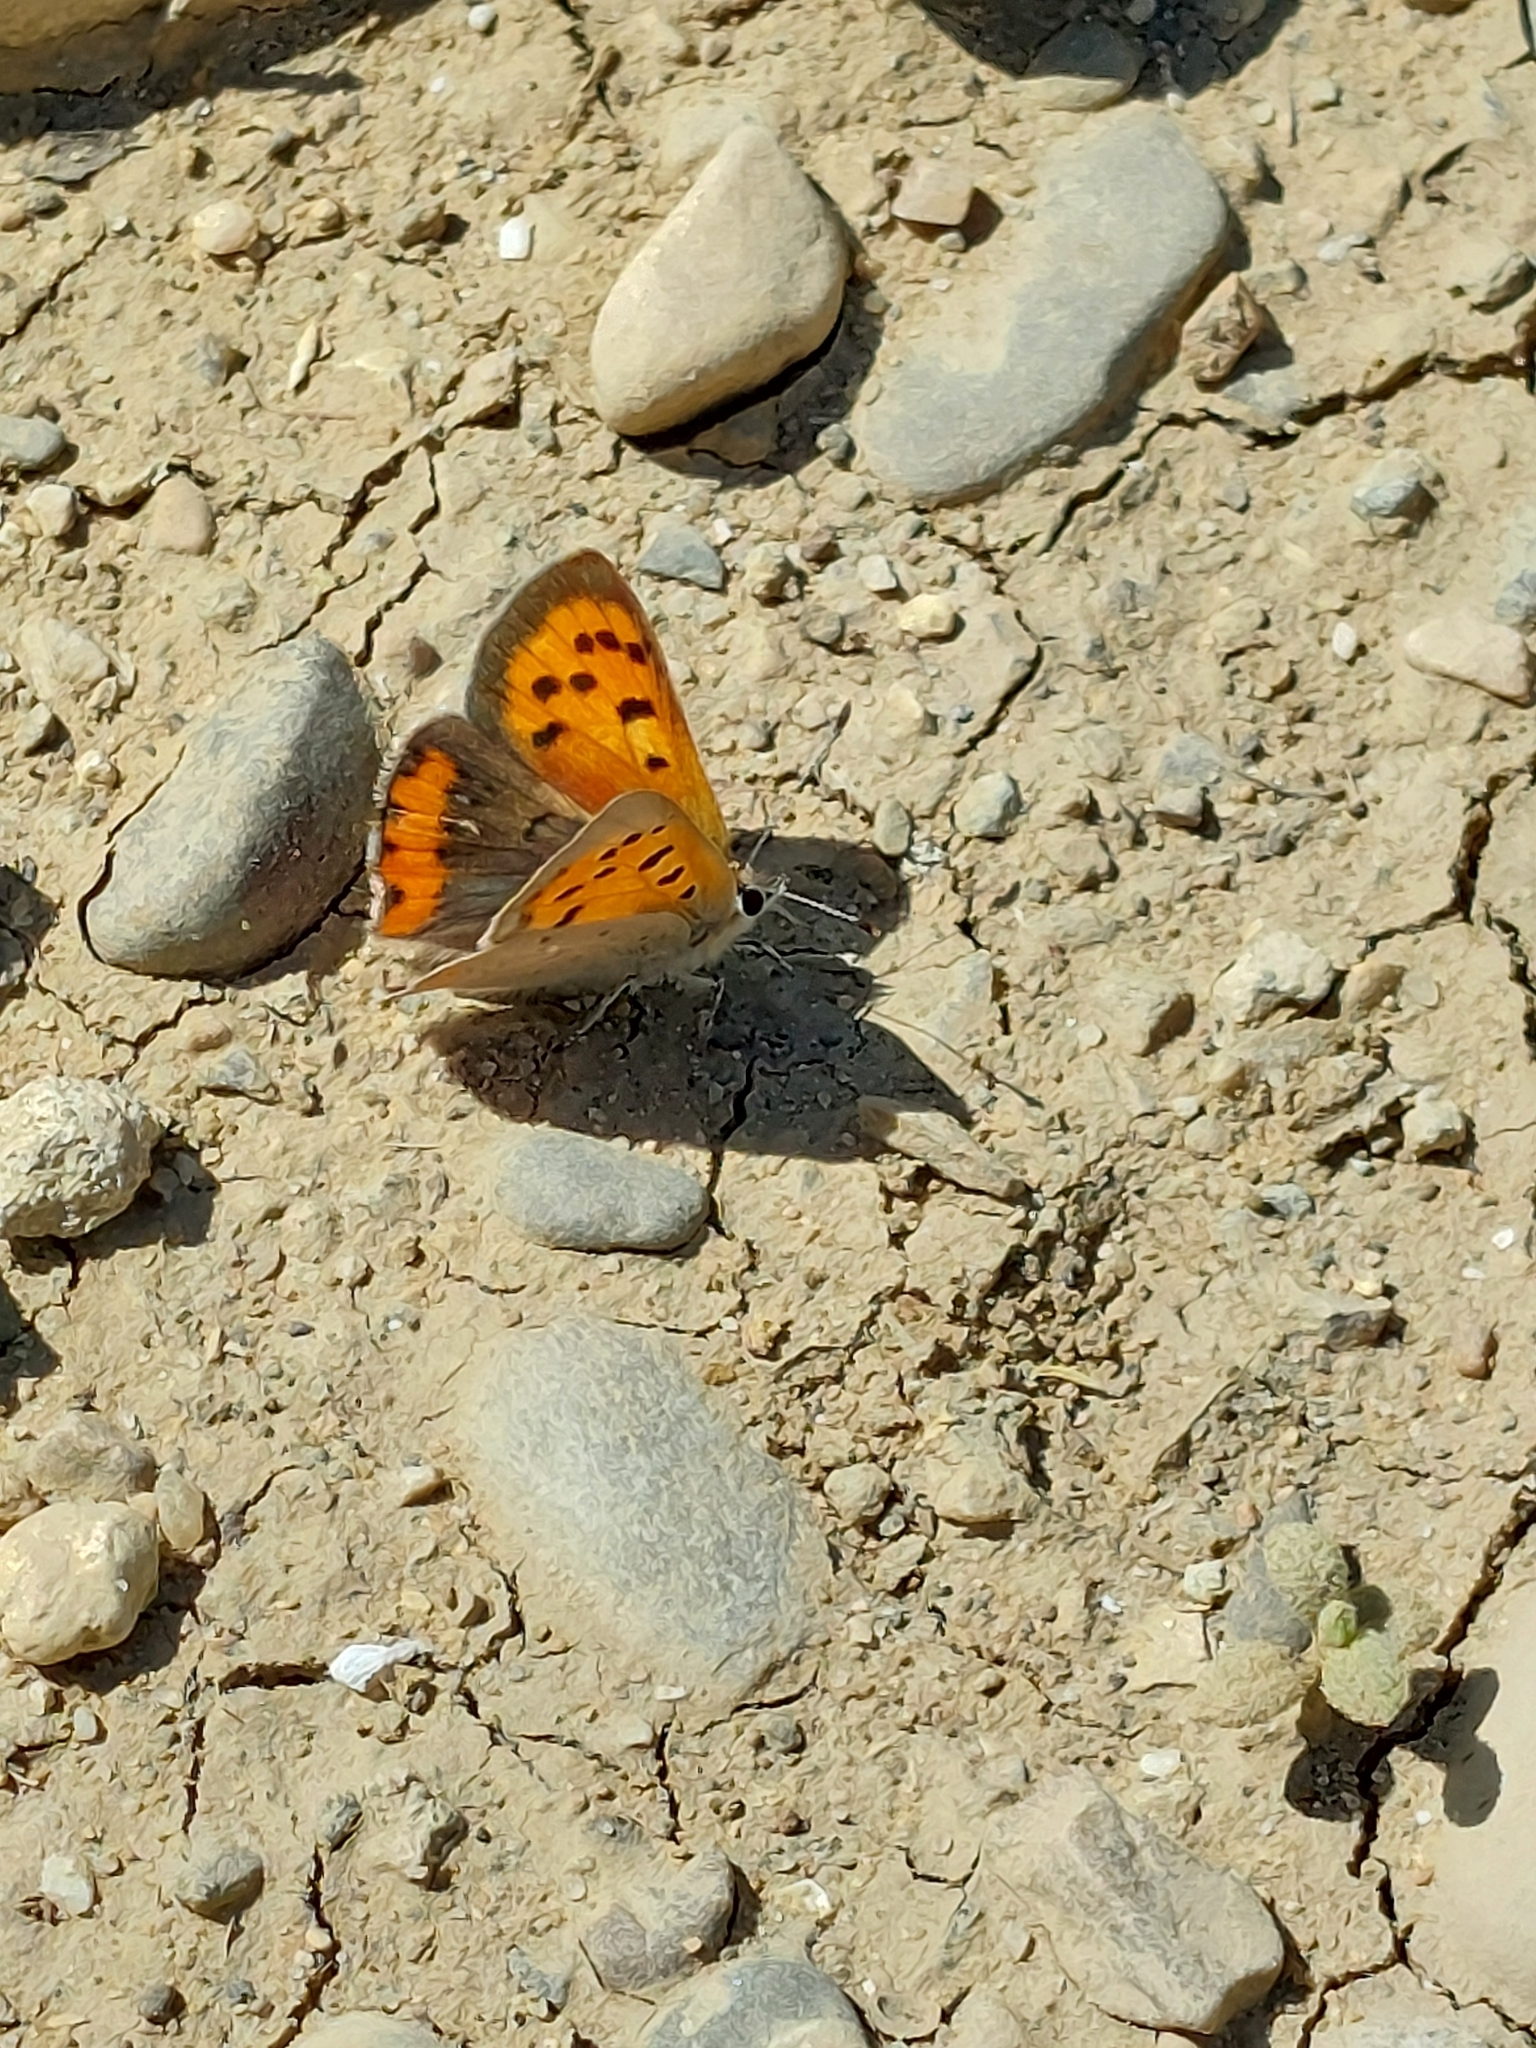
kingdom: Animalia
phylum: Arthropoda
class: Insecta
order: Lepidoptera
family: Lycaenidae
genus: Lycaena
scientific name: Lycaena phlaeas
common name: Small copper
